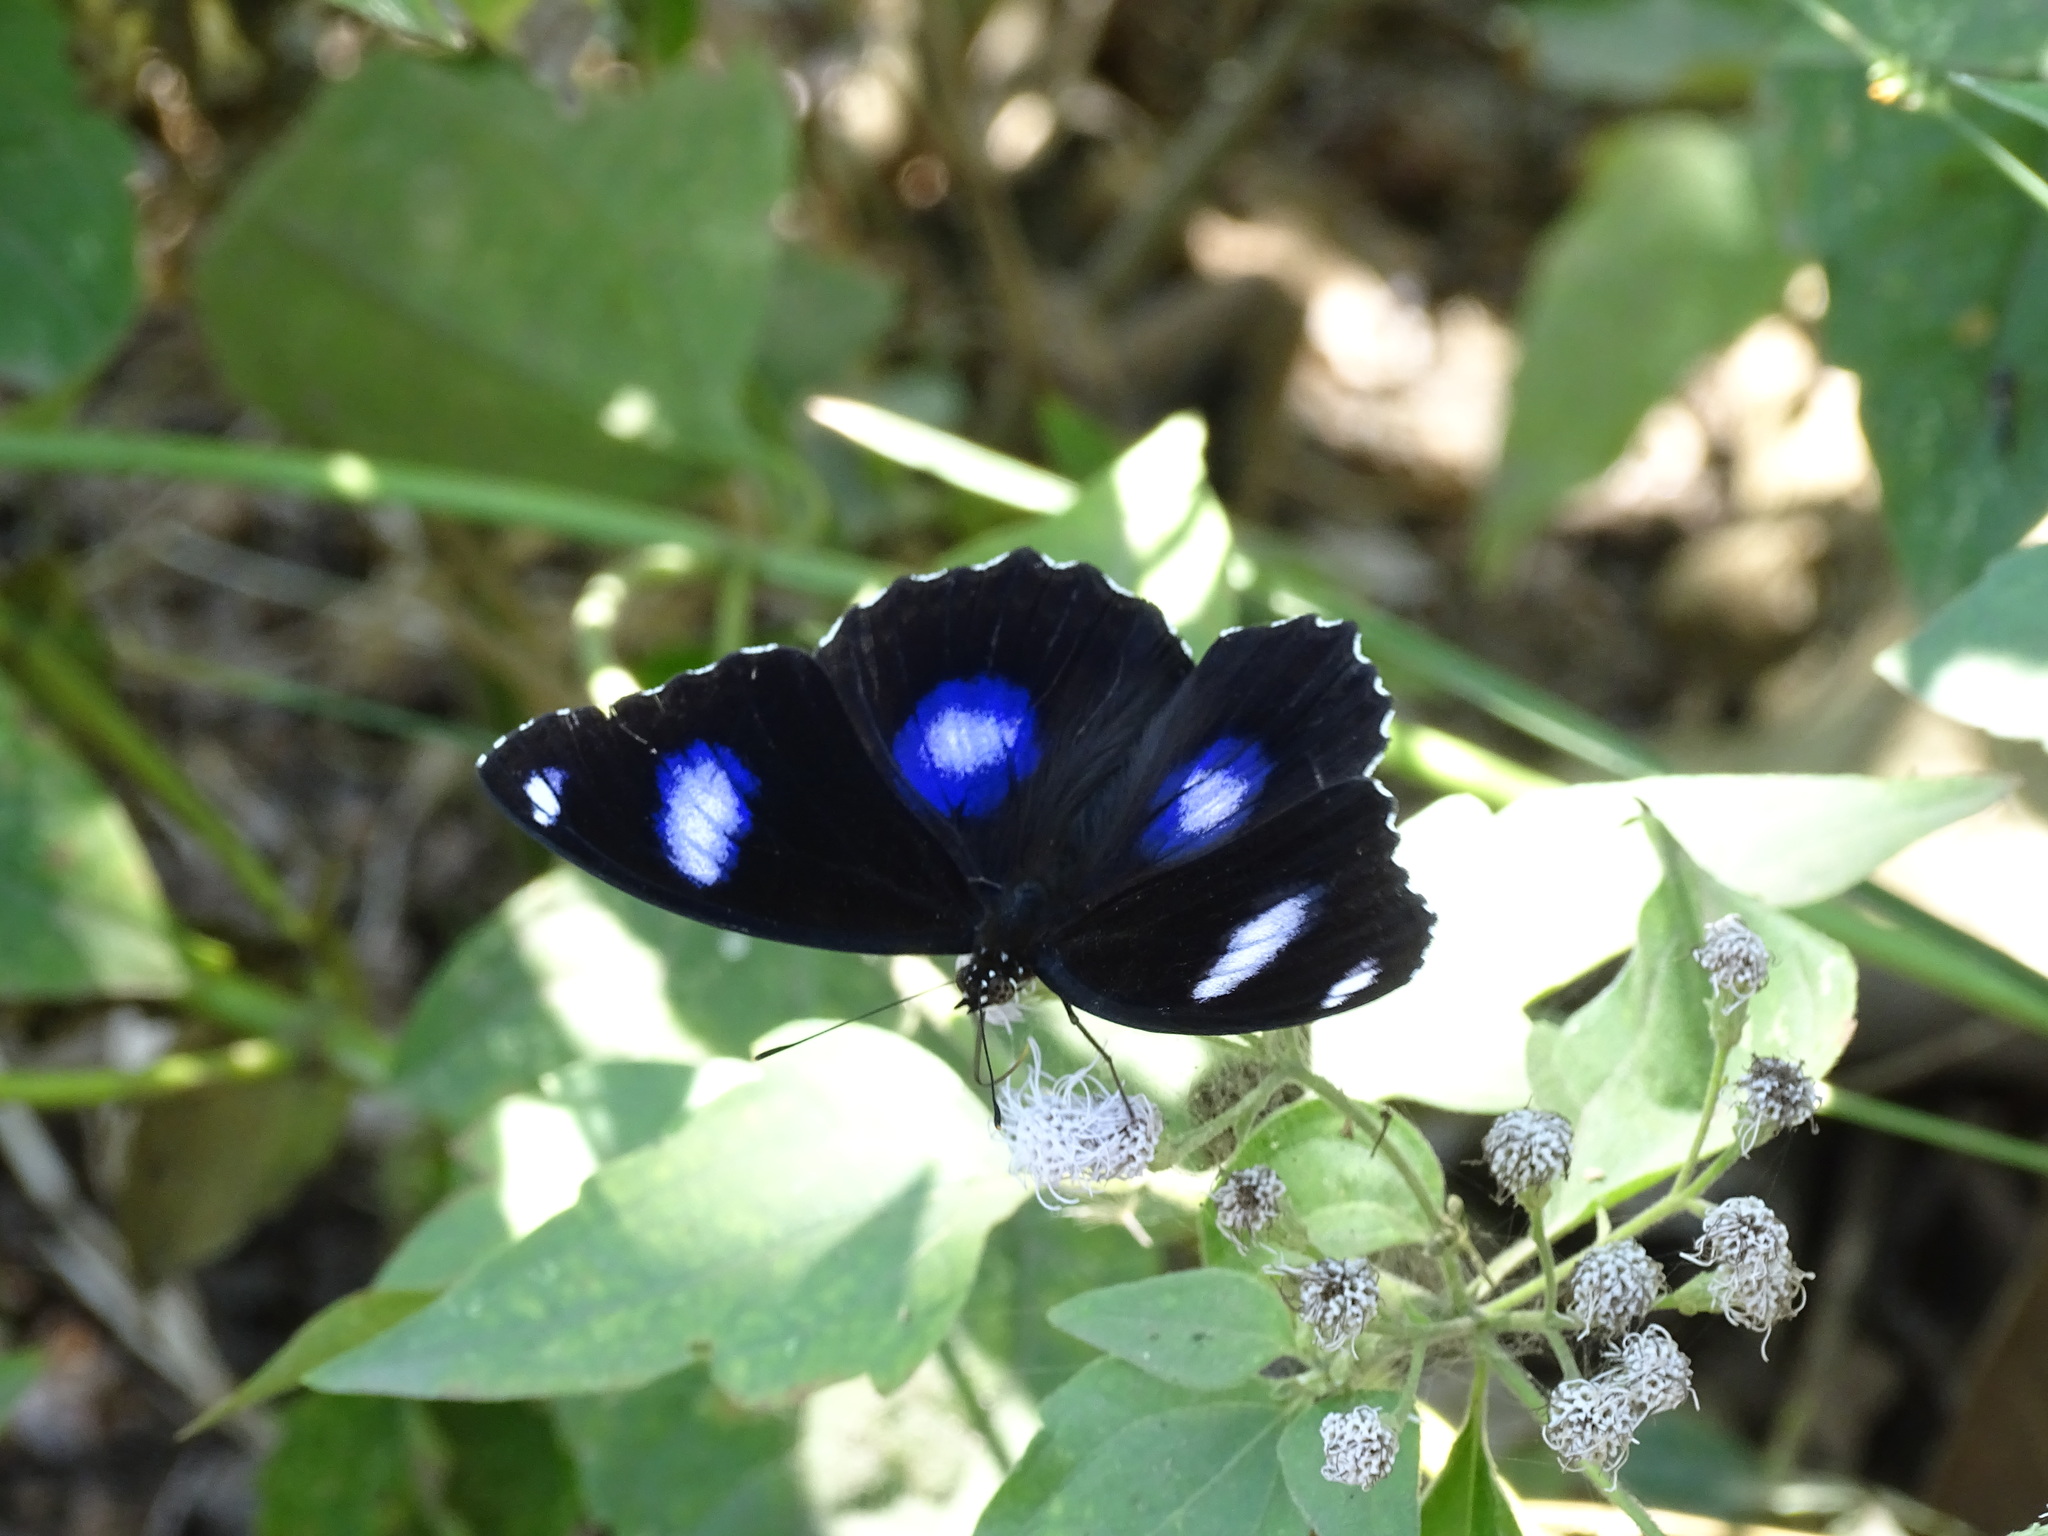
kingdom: Animalia
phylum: Arthropoda
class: Insecta
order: Lepidoptera
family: Nymphalidae
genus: Hypolimnas
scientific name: Hypolimnas bolina
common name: Great eggfly
